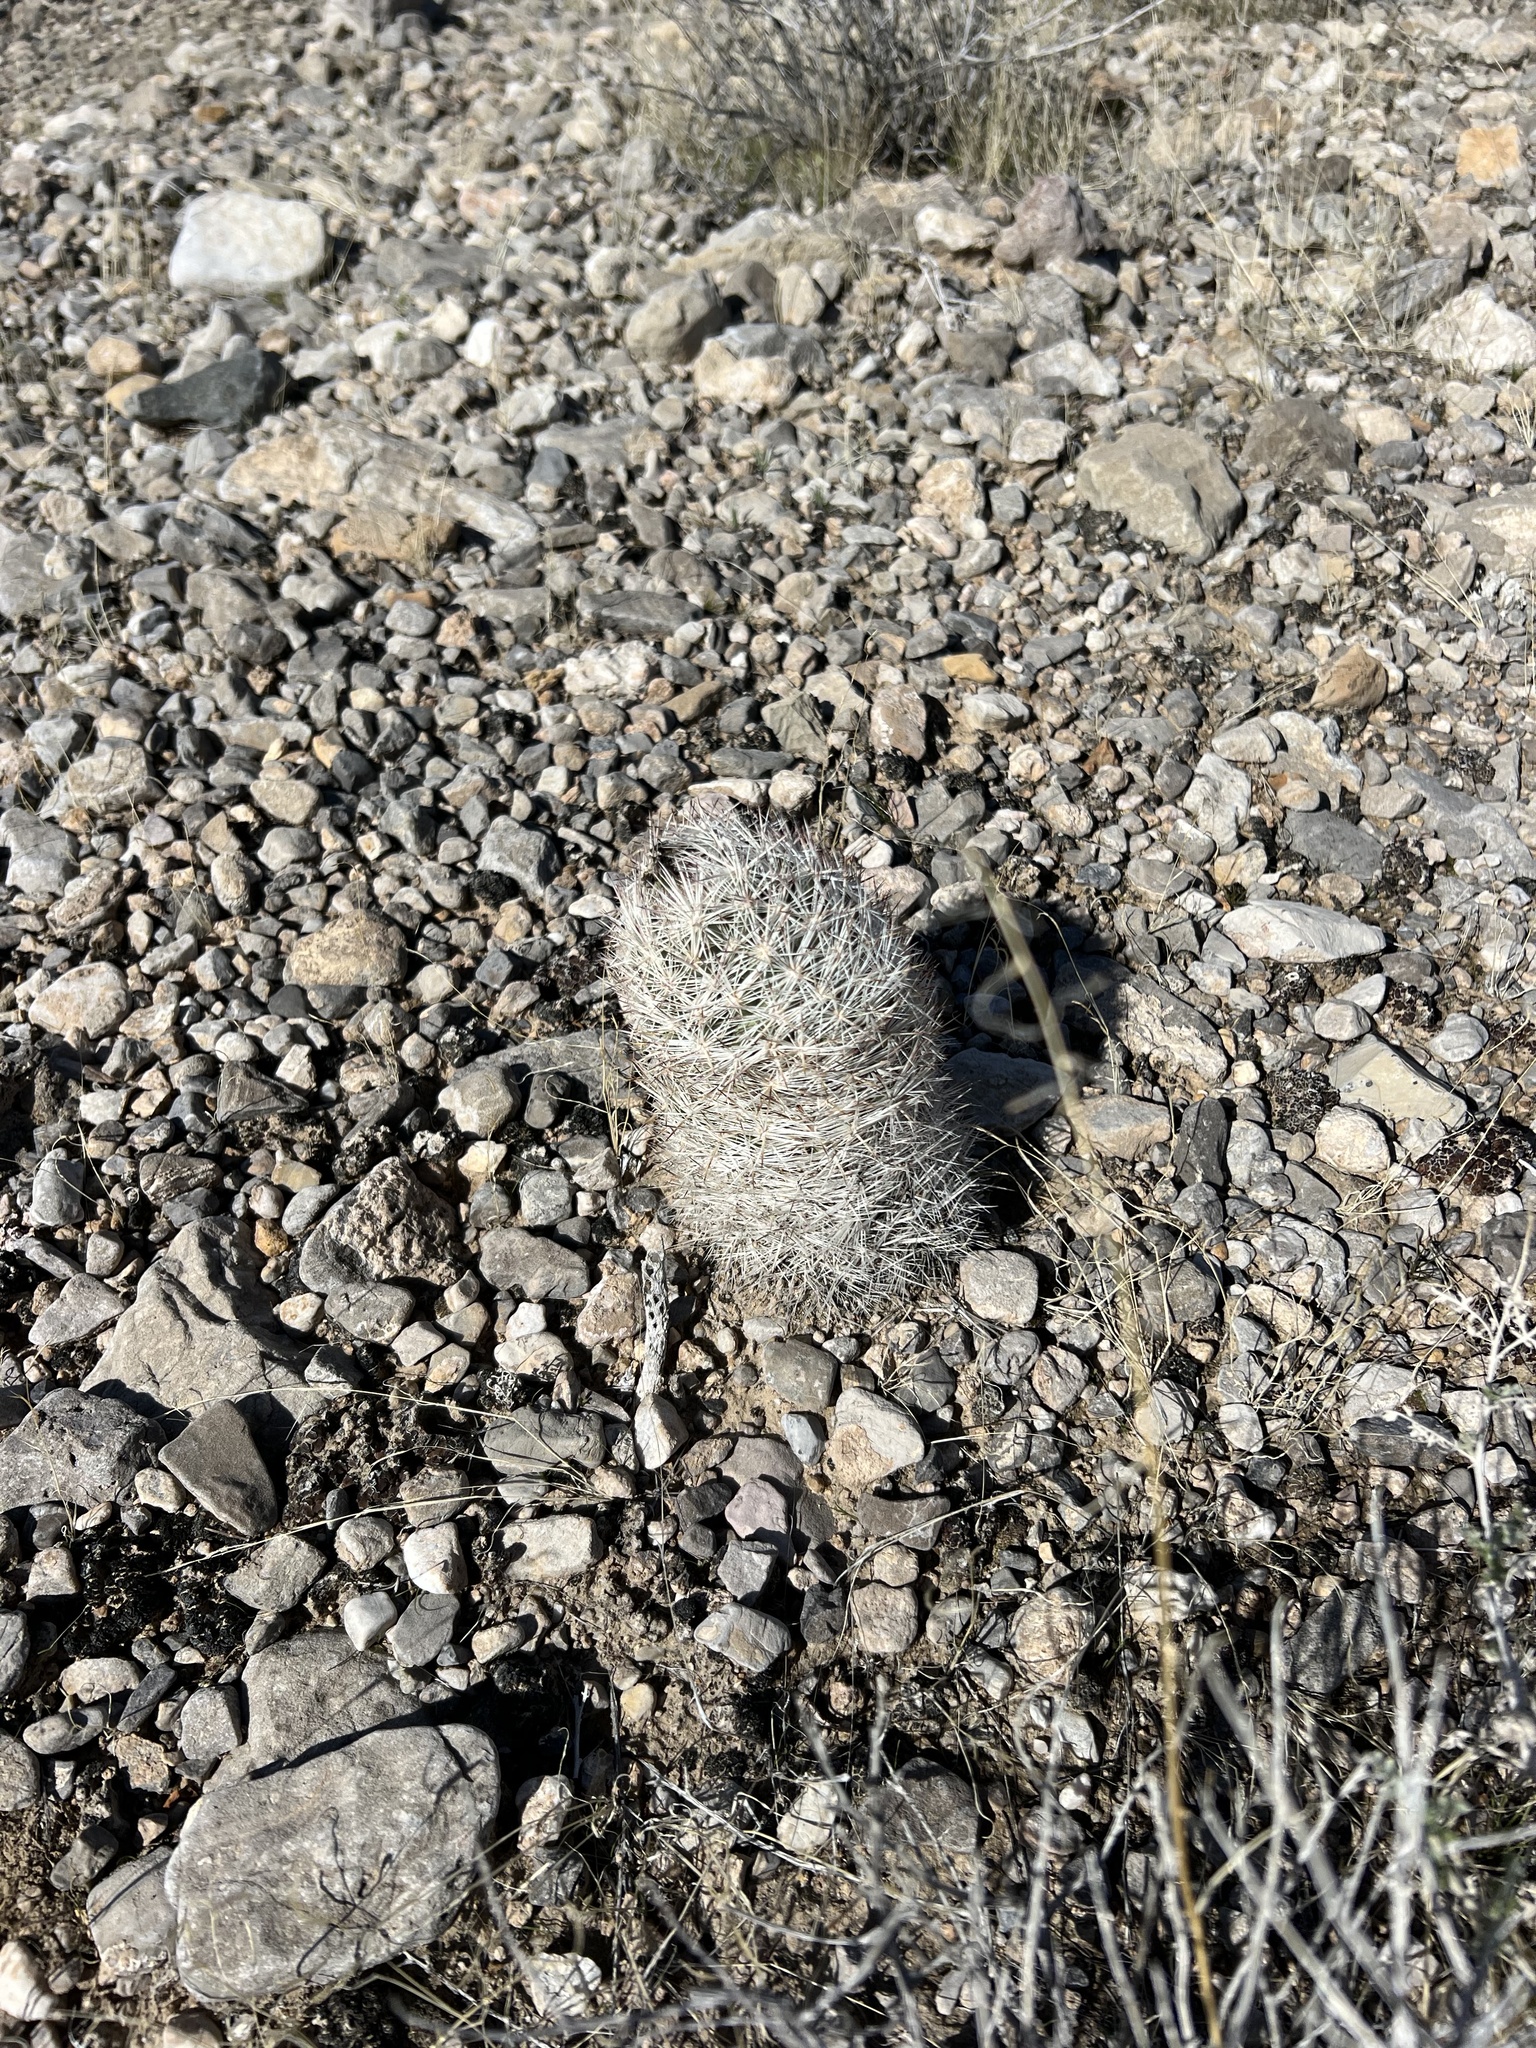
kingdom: Plantae
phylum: Tracheophyta
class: Magnoliopsida
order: Caryophyllales
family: Cactaceae
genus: Pelecyphora
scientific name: Pelecyphora dasyacantha
